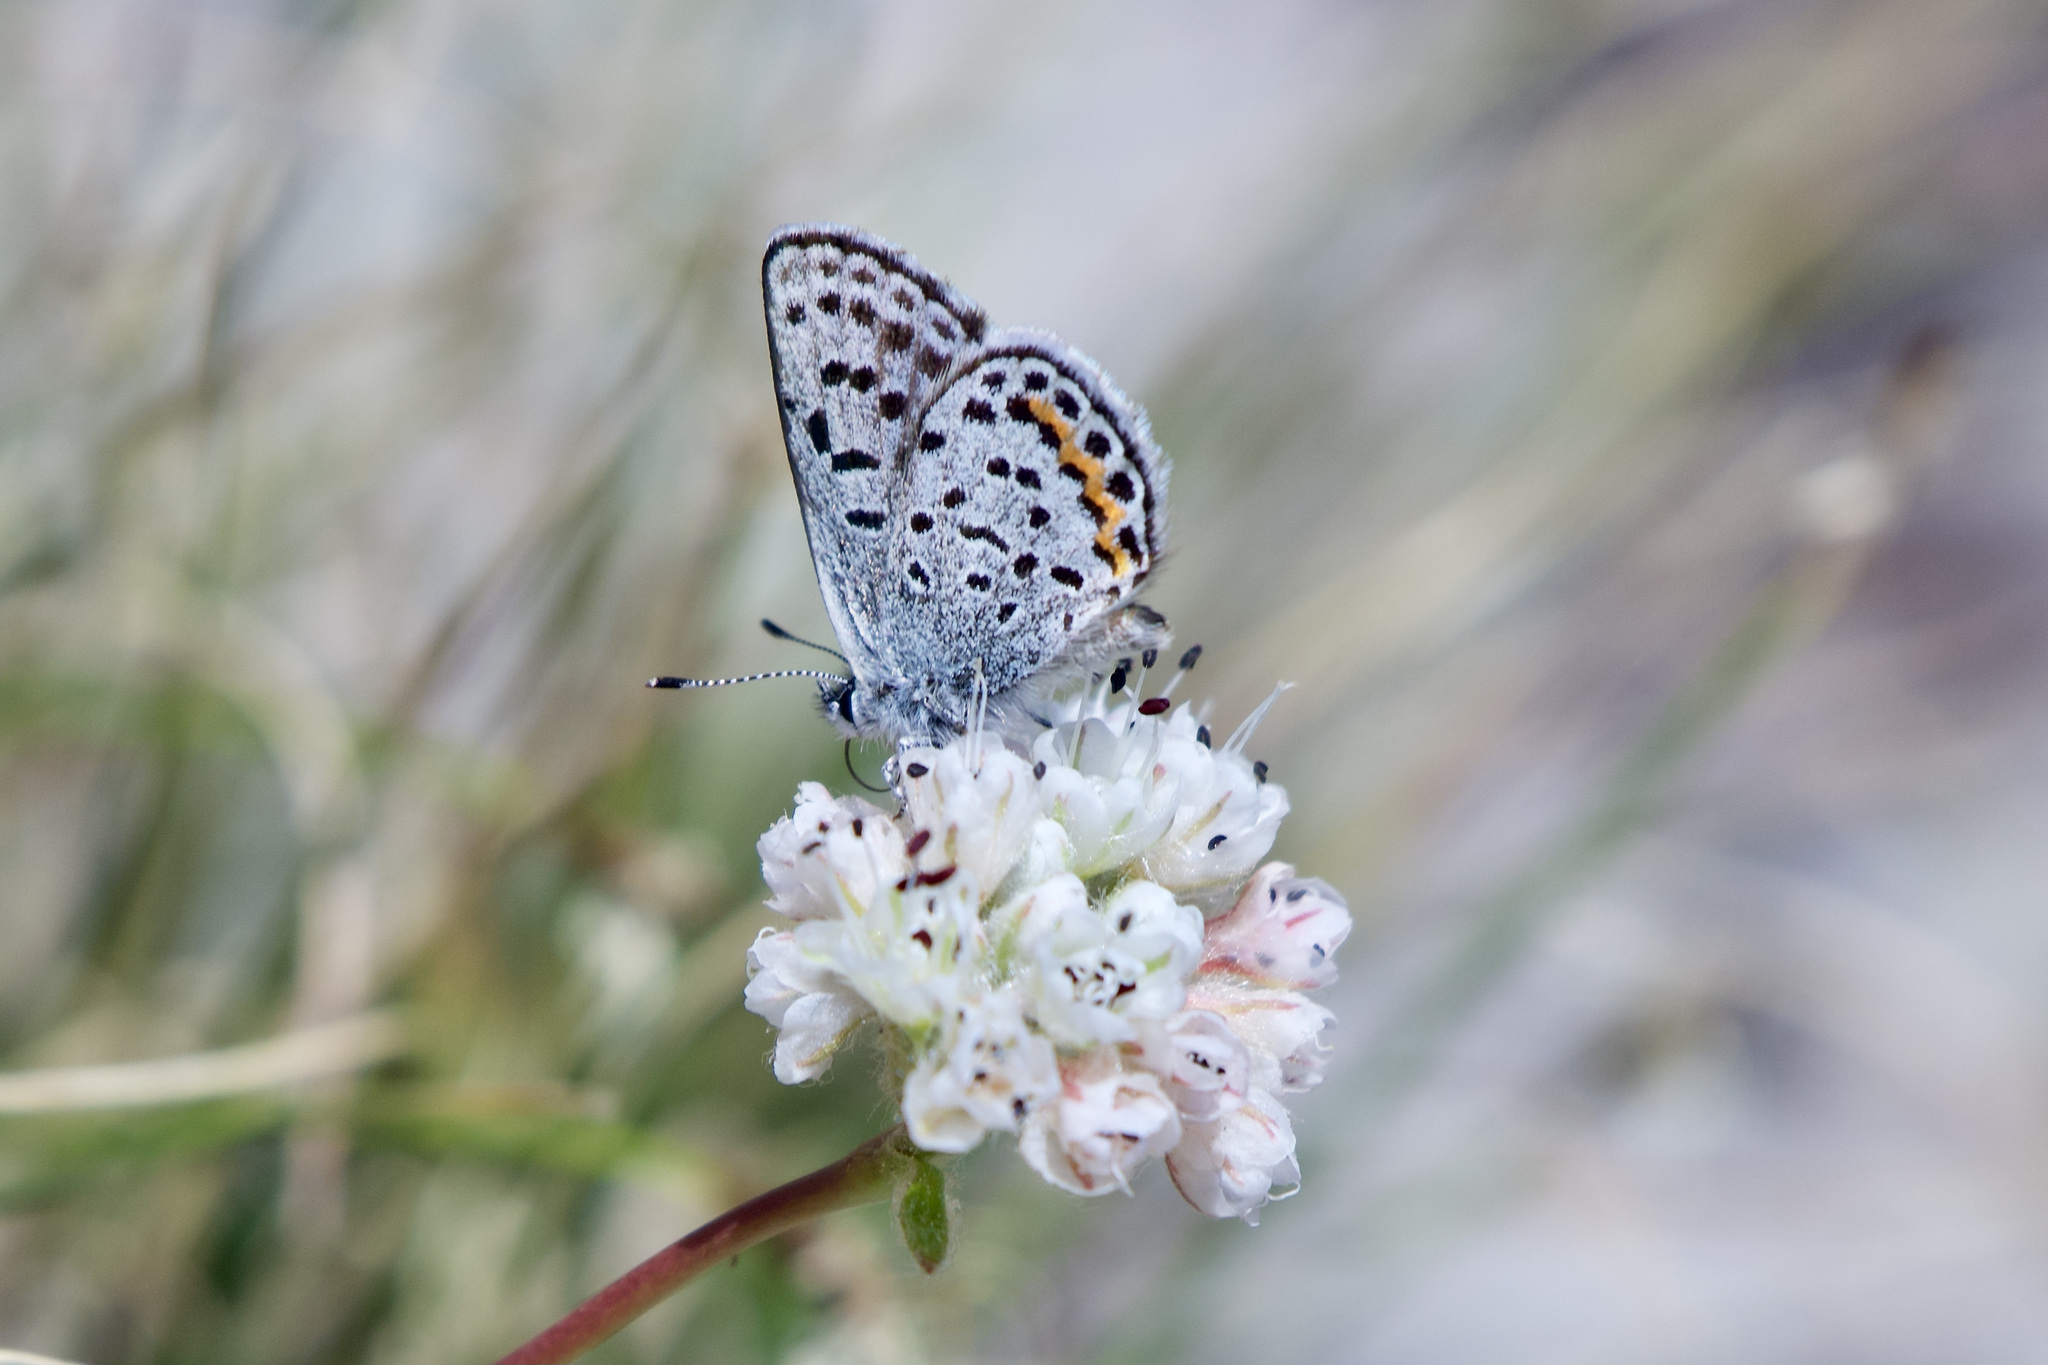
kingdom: Animalia
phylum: Arthropoda
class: Insecta
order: Lepidoptera
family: Lycaenidae
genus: Euphilotes
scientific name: Euphilotes battoides
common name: Square-spotted blue
